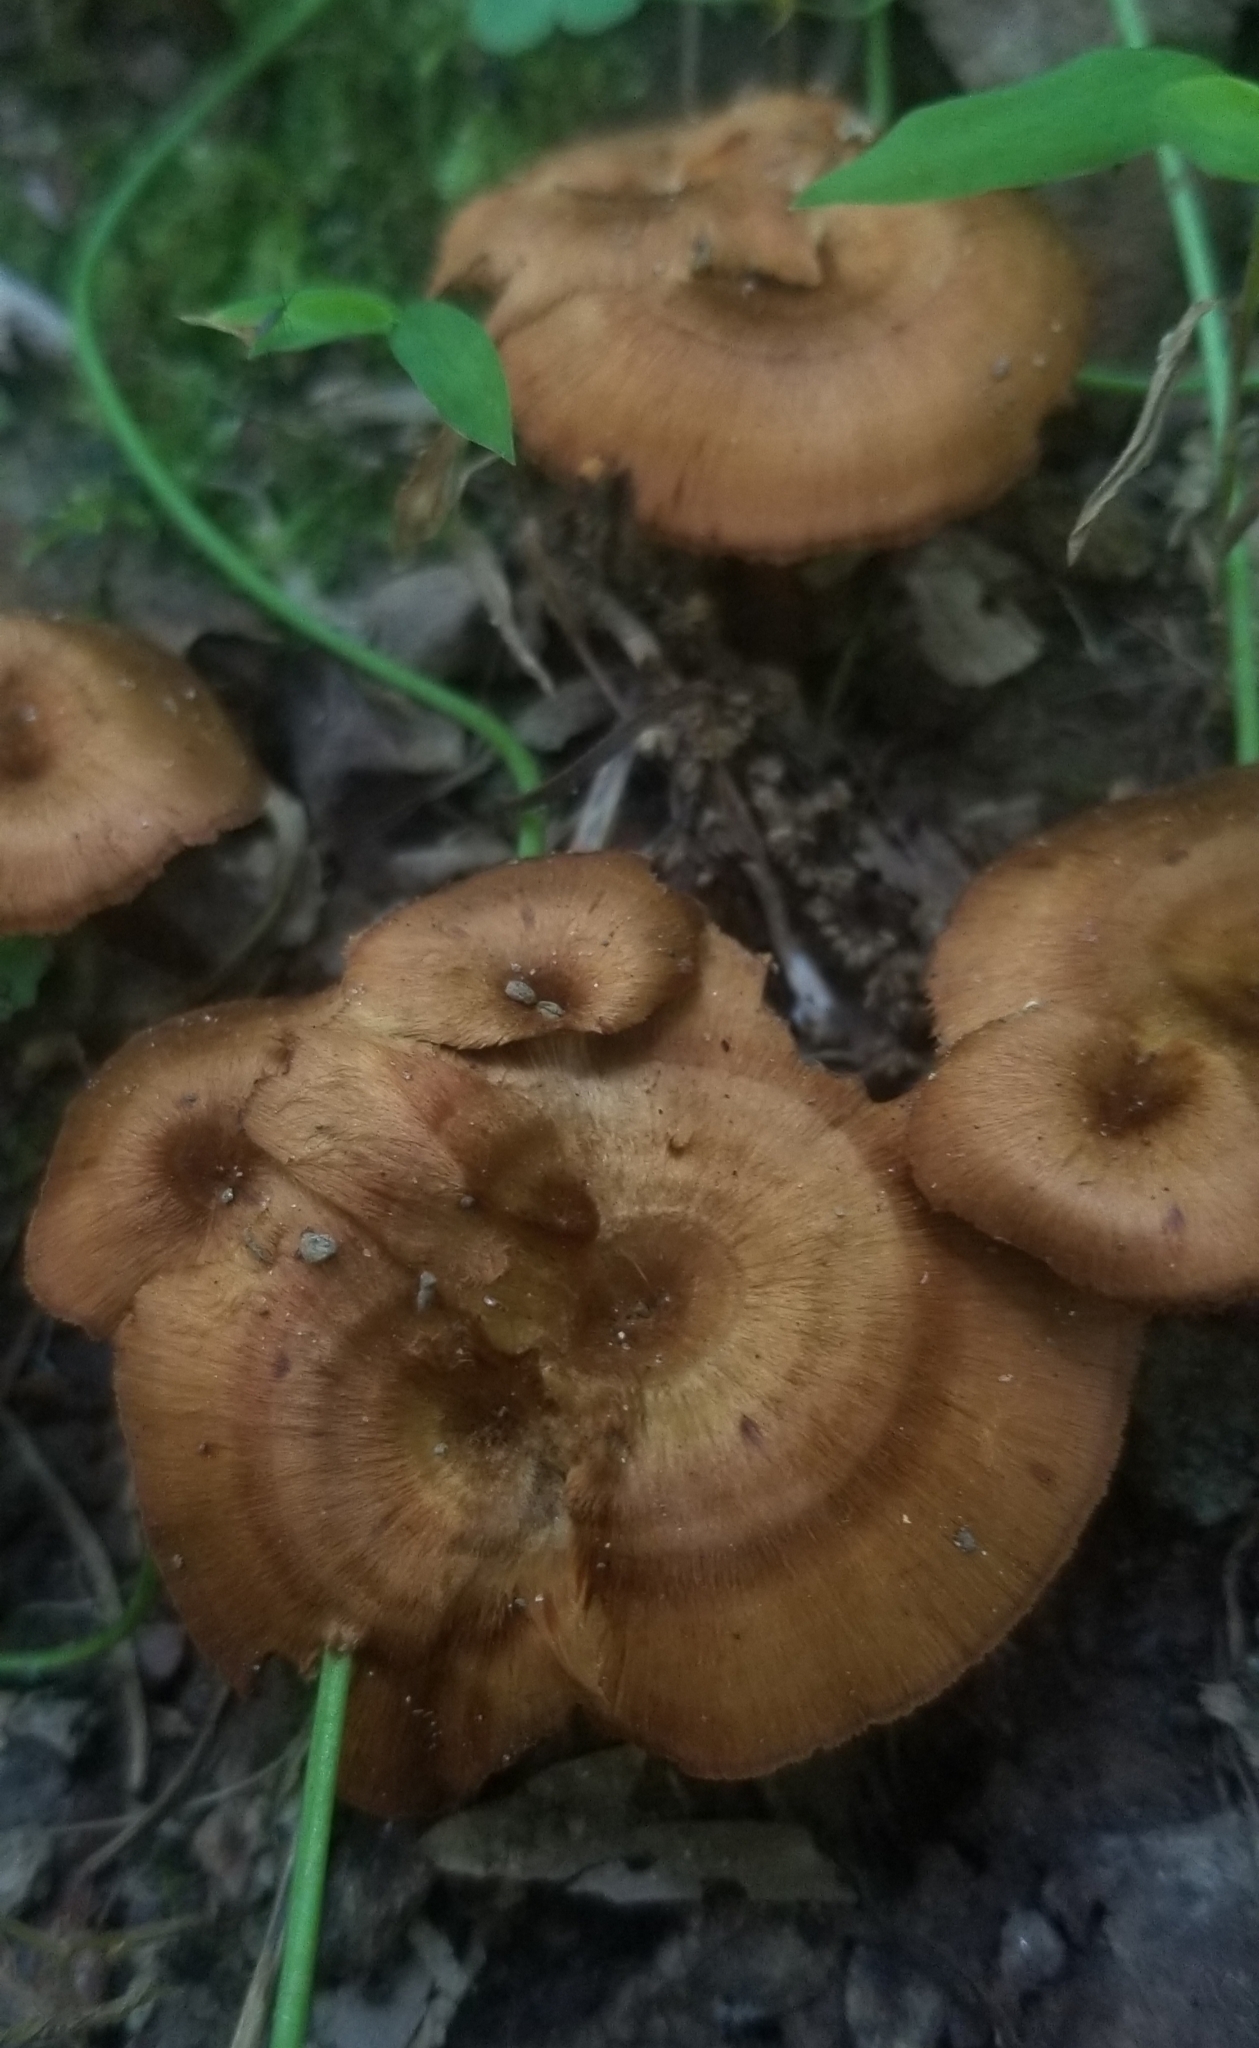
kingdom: Fungi
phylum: Basidiomycota
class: Agaricomycetes
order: Hymenochaetales
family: Hymenochaetaceae
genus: Coltricia
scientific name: Coltricia cinnamomea
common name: Shiny cinnamon polypore
